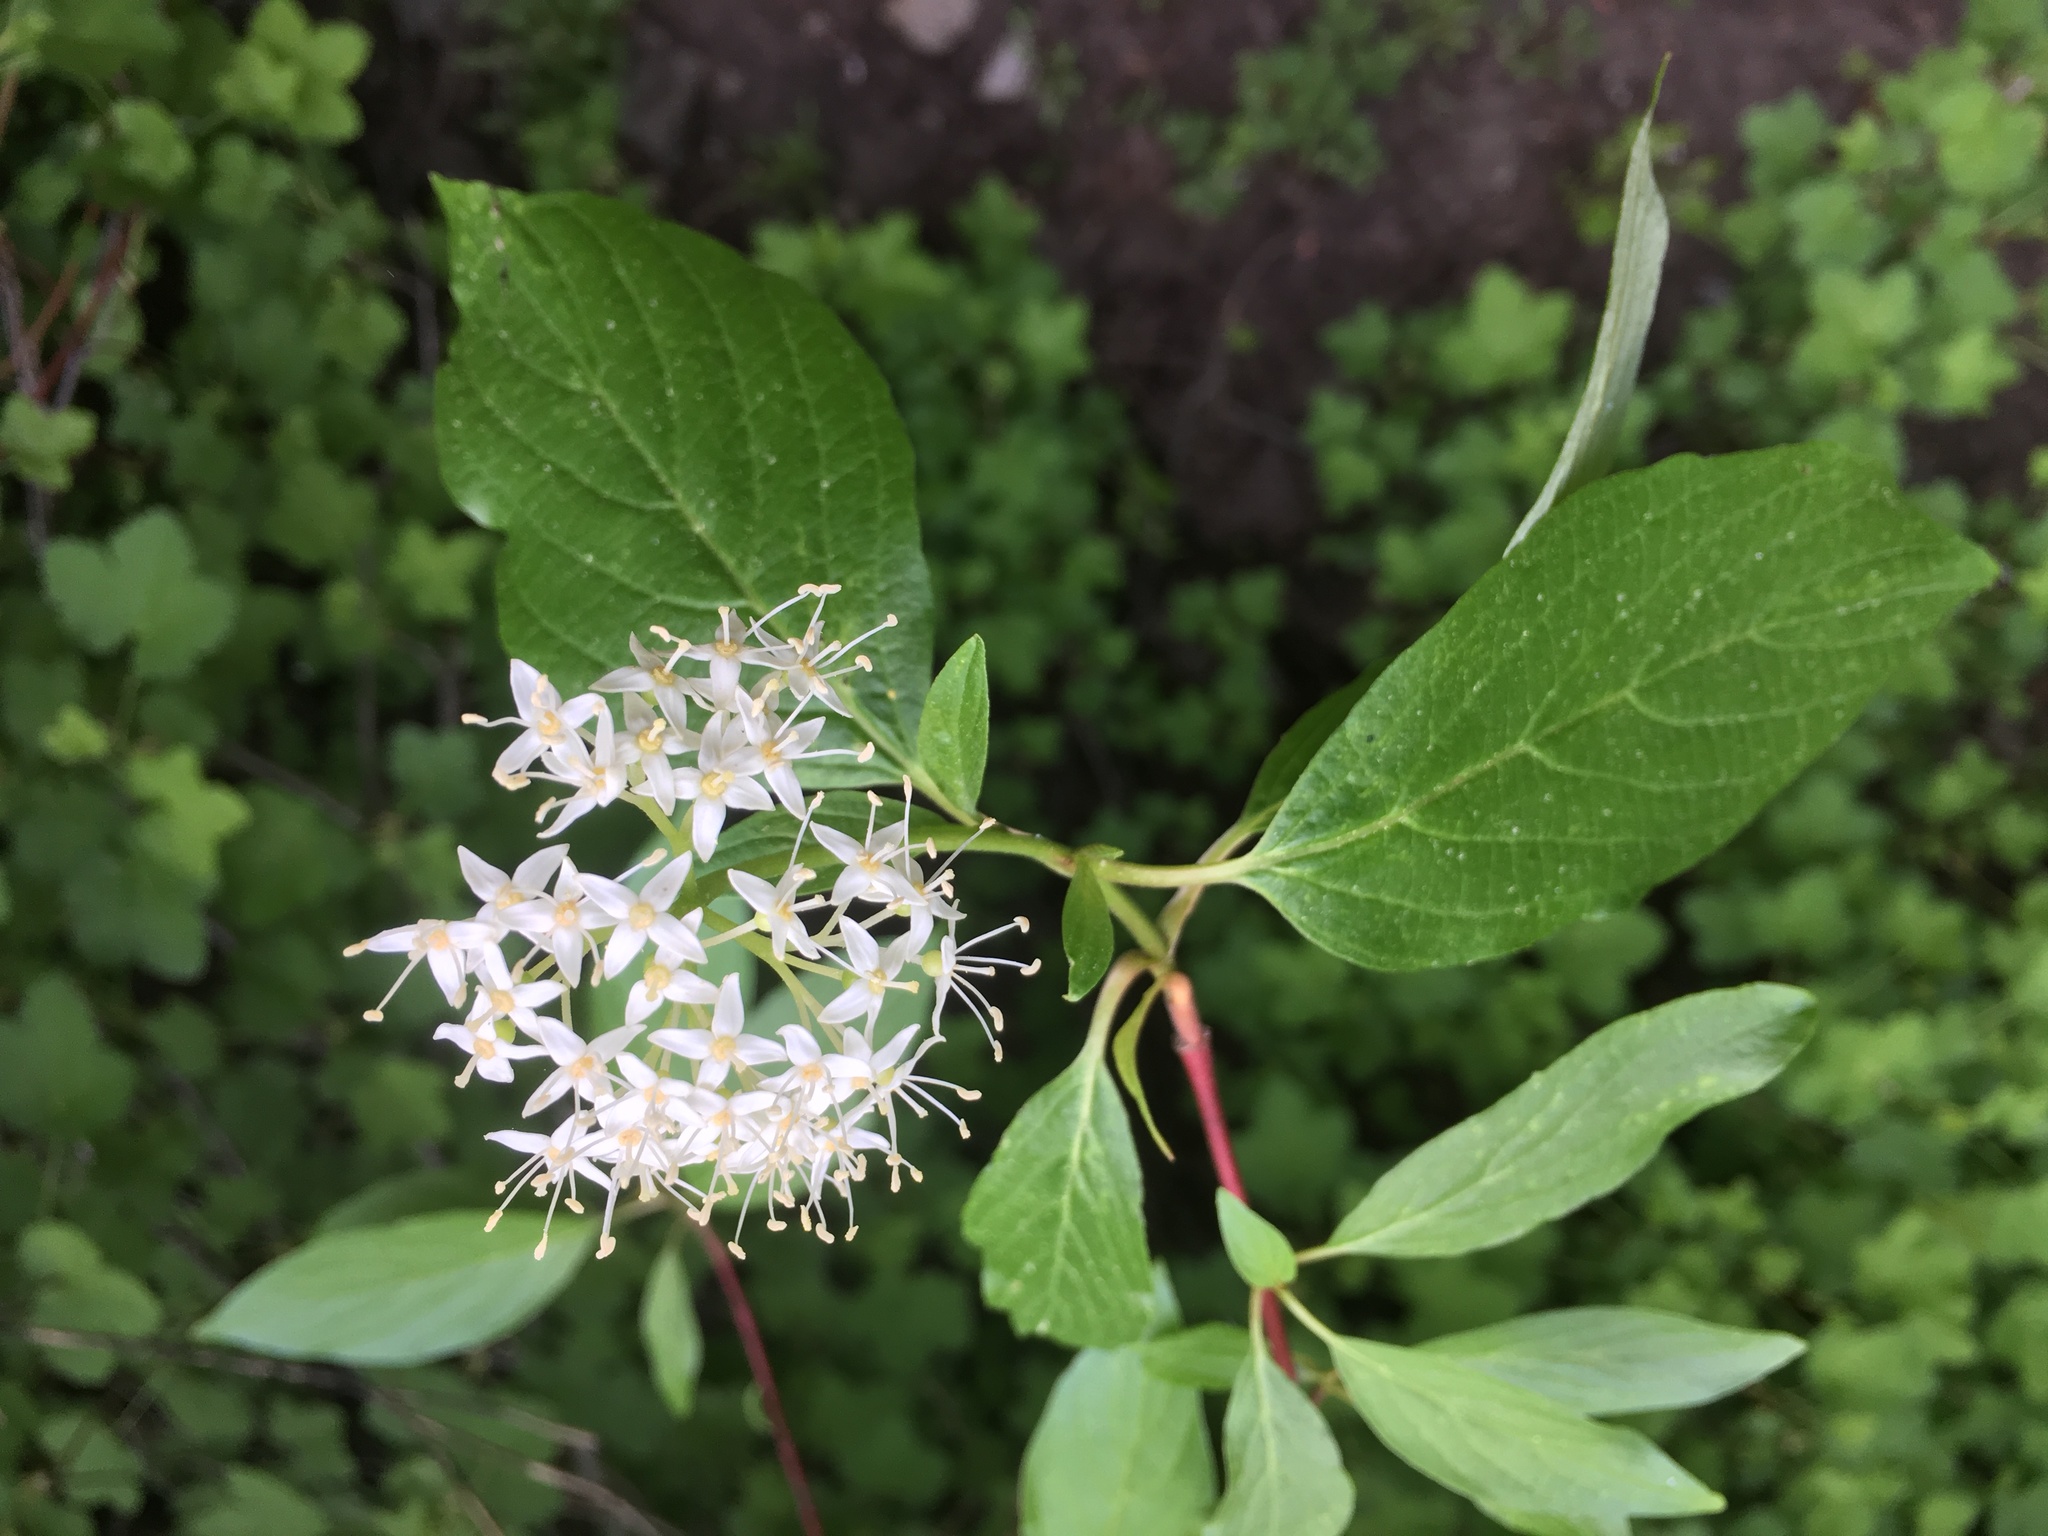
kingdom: Plantae
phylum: Tracheophyta
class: Magnoliopsida
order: Cornales
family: Cornaceae
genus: Cornus
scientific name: Cornus sericea
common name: Red-osier dogwood
